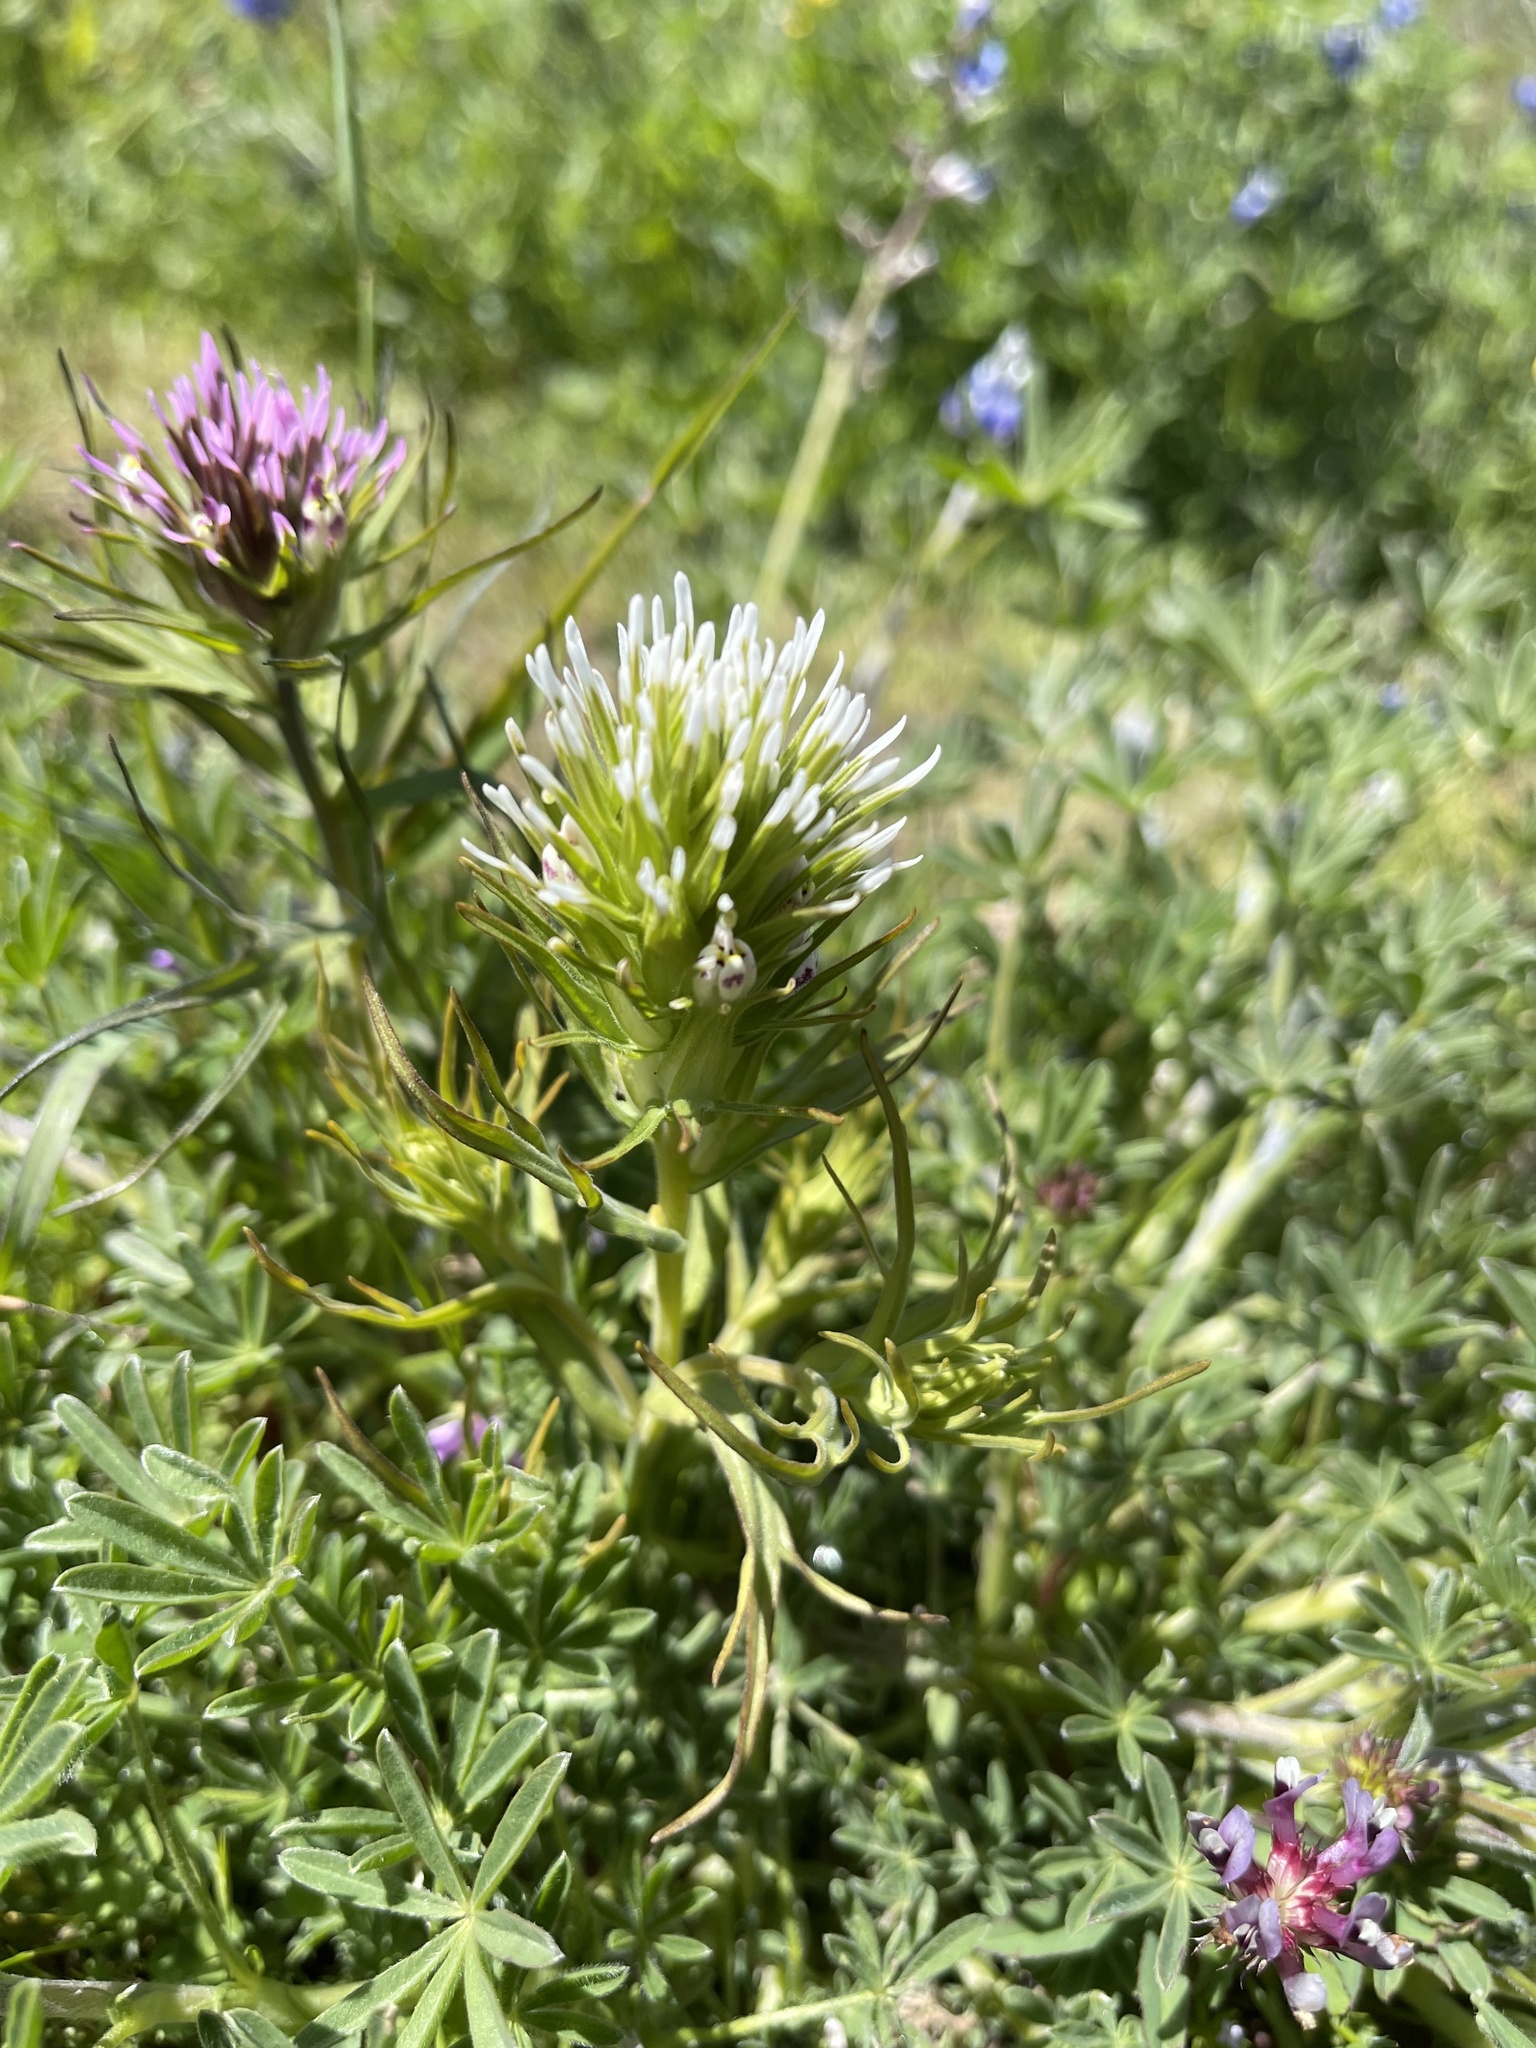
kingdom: Plantae
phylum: Tracheophyta
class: Magnoliopsida
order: Lamiales
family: Orobanchaceae
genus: Castilleja
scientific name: Castilleja attenuata
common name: Valley tassels
